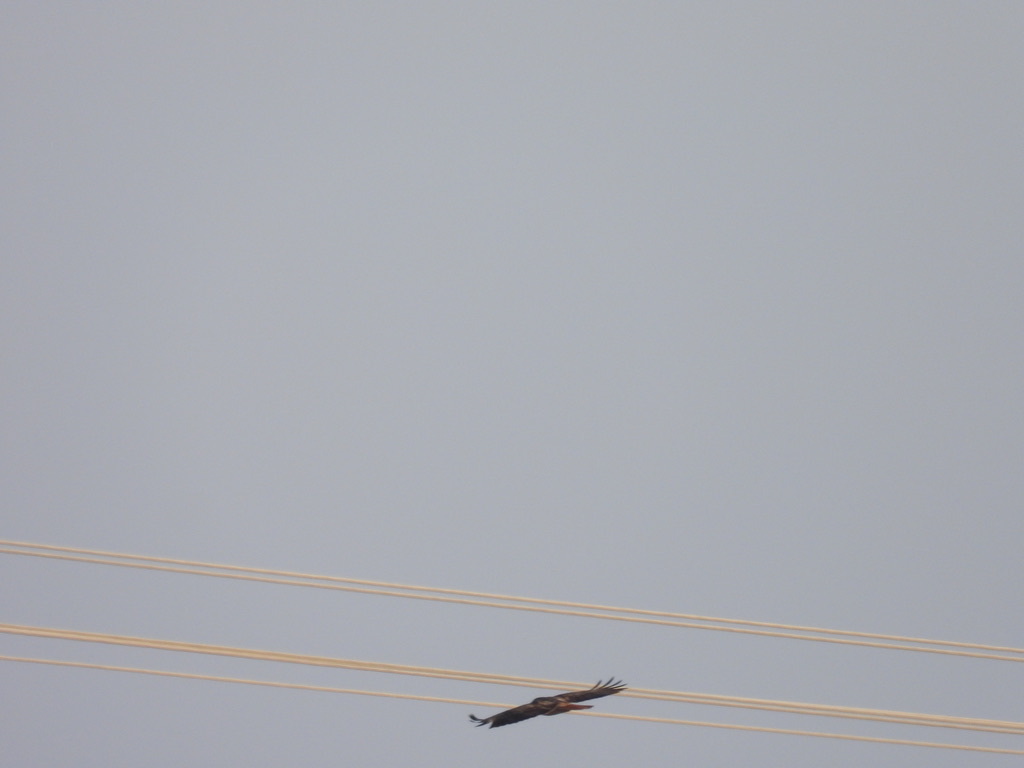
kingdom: Animalia
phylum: Chordata
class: Aves
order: Accipitriformes
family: Accipitridae
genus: Buteo
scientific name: Buteo jamaicensis
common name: Red-tailed hawk
